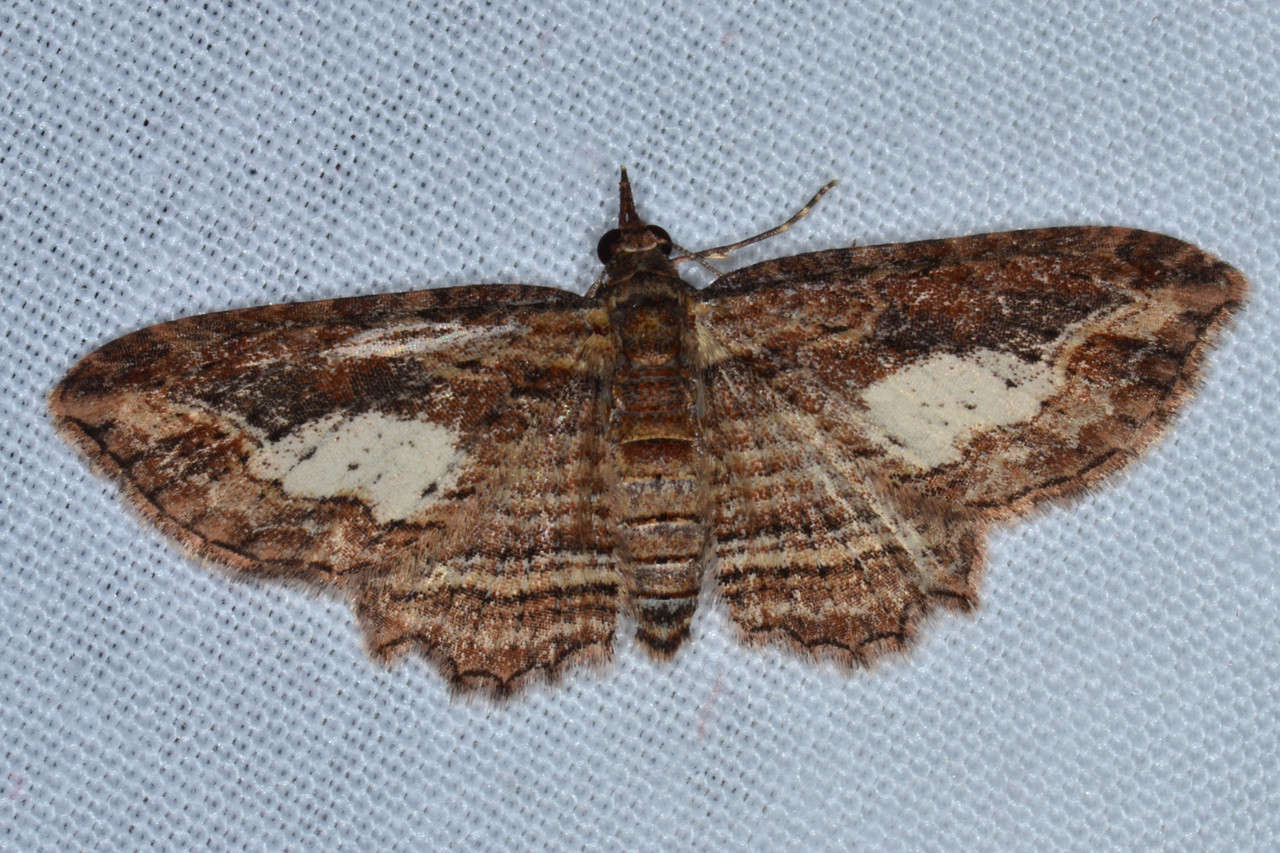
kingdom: Animalia
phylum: Arthropoda
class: Insecta
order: Lepidoptera
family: Geometridae
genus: Chloroclystis
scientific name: Chloroclystis filata
